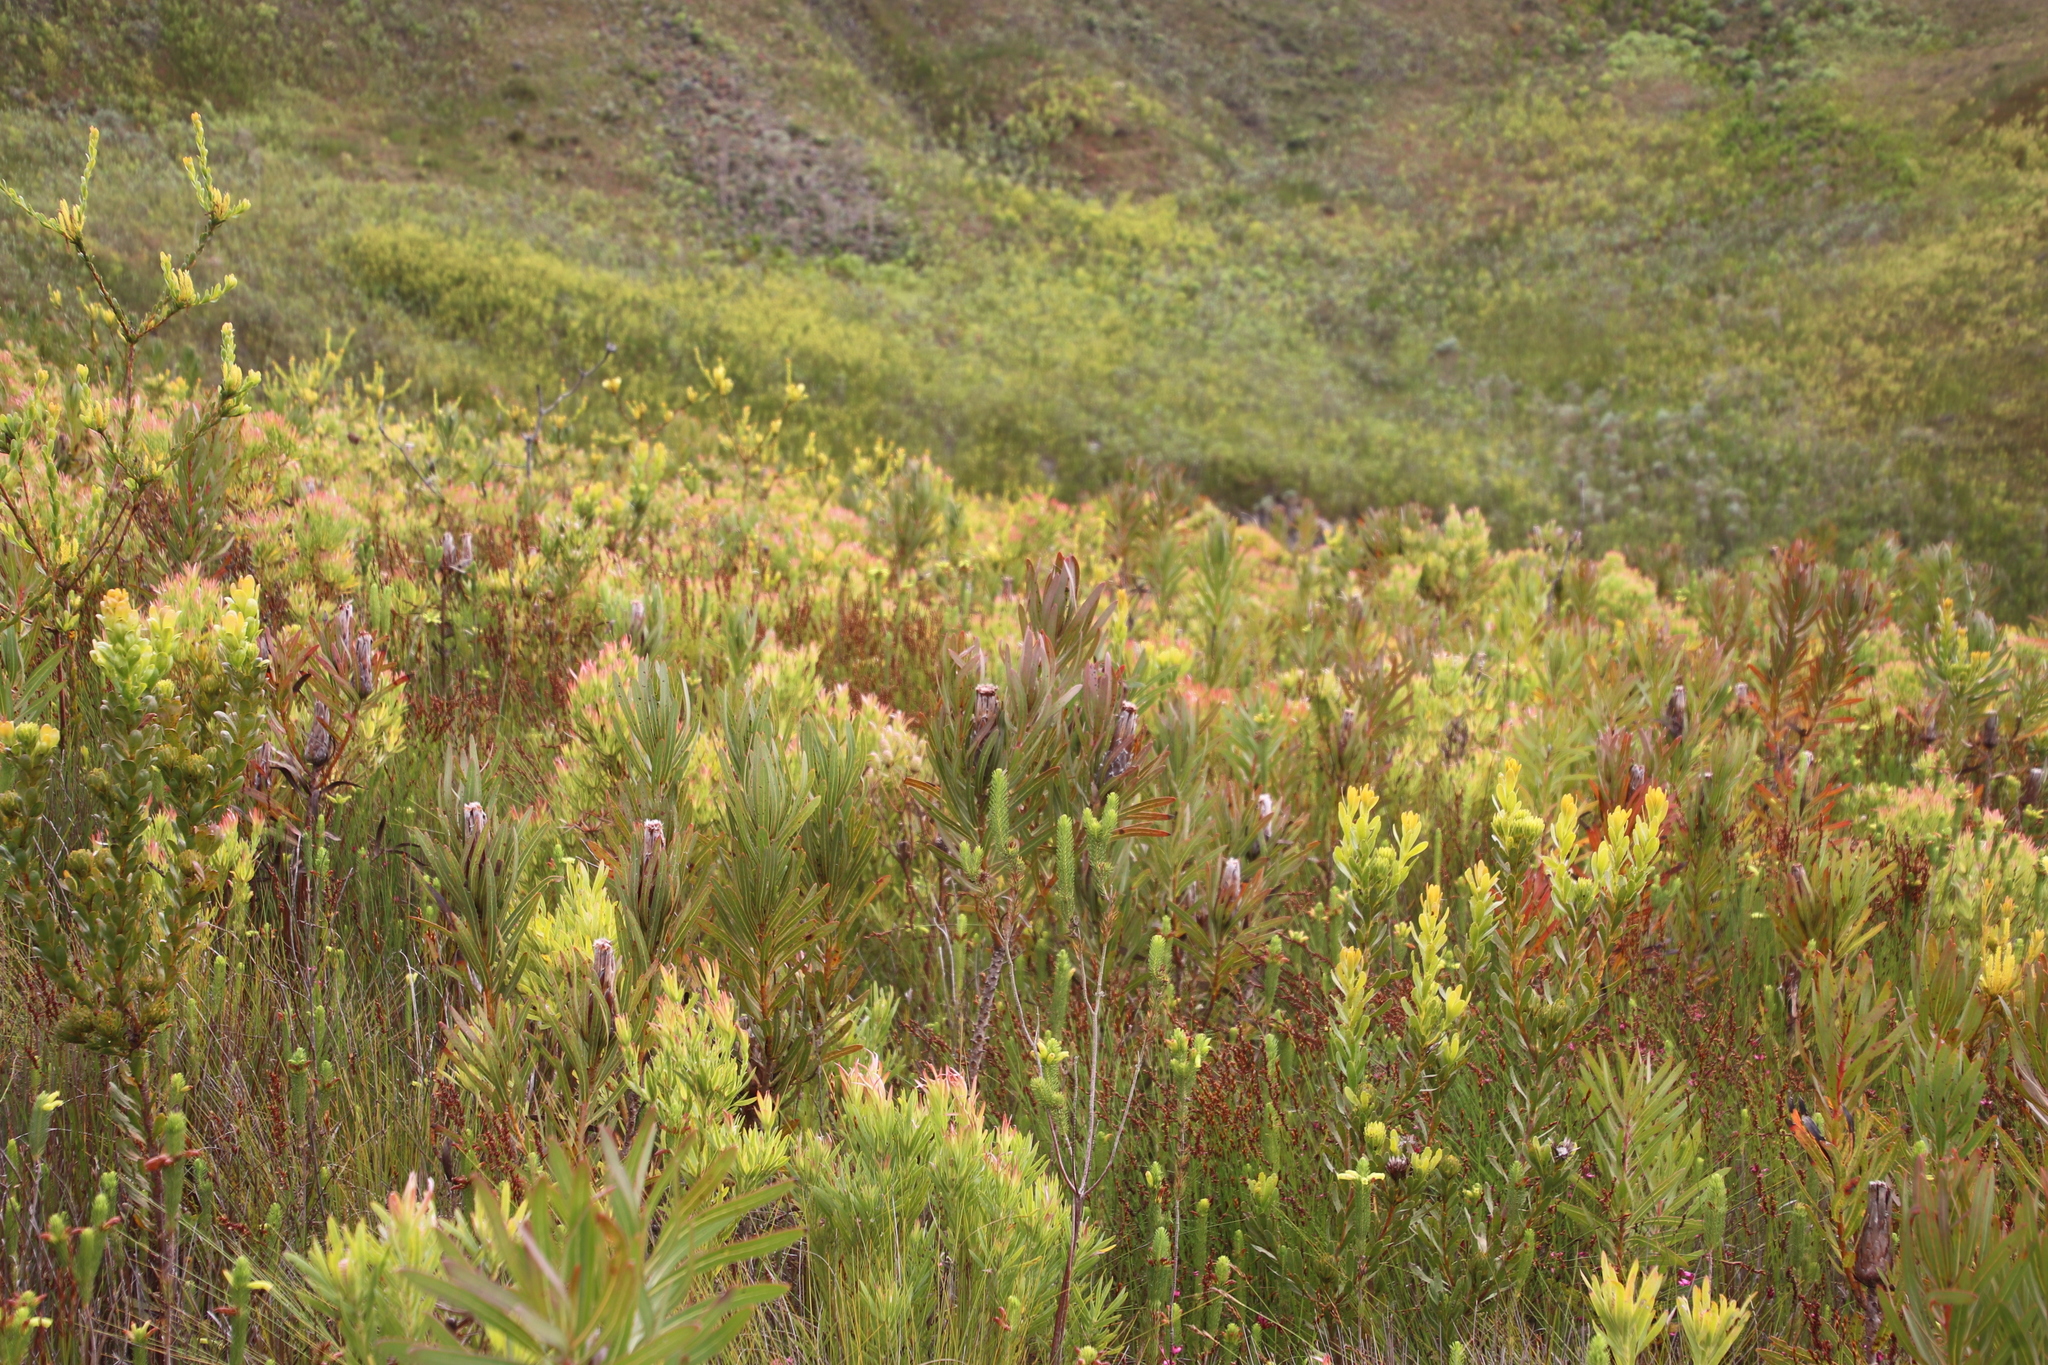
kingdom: Plantae
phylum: Tracheophyta
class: Magnoliopsida
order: Proteales
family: Proteaceae
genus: Protea
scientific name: Protea lepidocarpodendron
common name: Black-bearded protea
